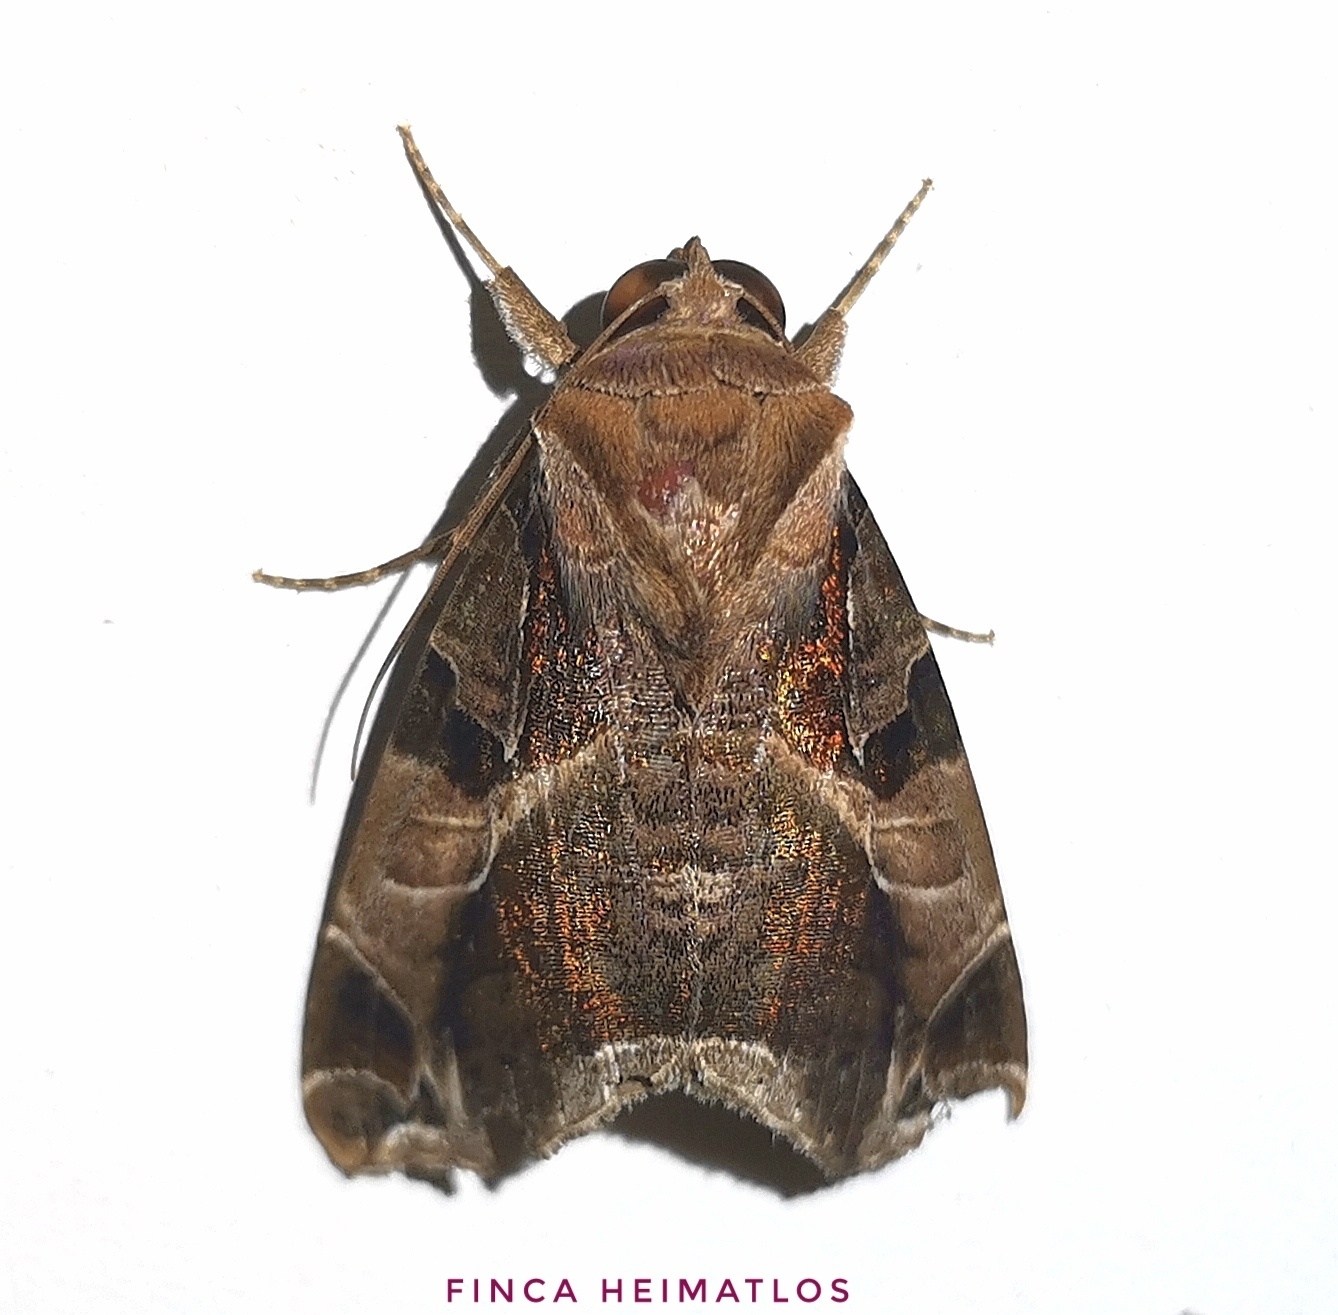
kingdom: Animalia
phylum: Arthropoda
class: Insecta
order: Lepidoptera
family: Erebidae
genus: Calyptis
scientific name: Calyptis idonea
